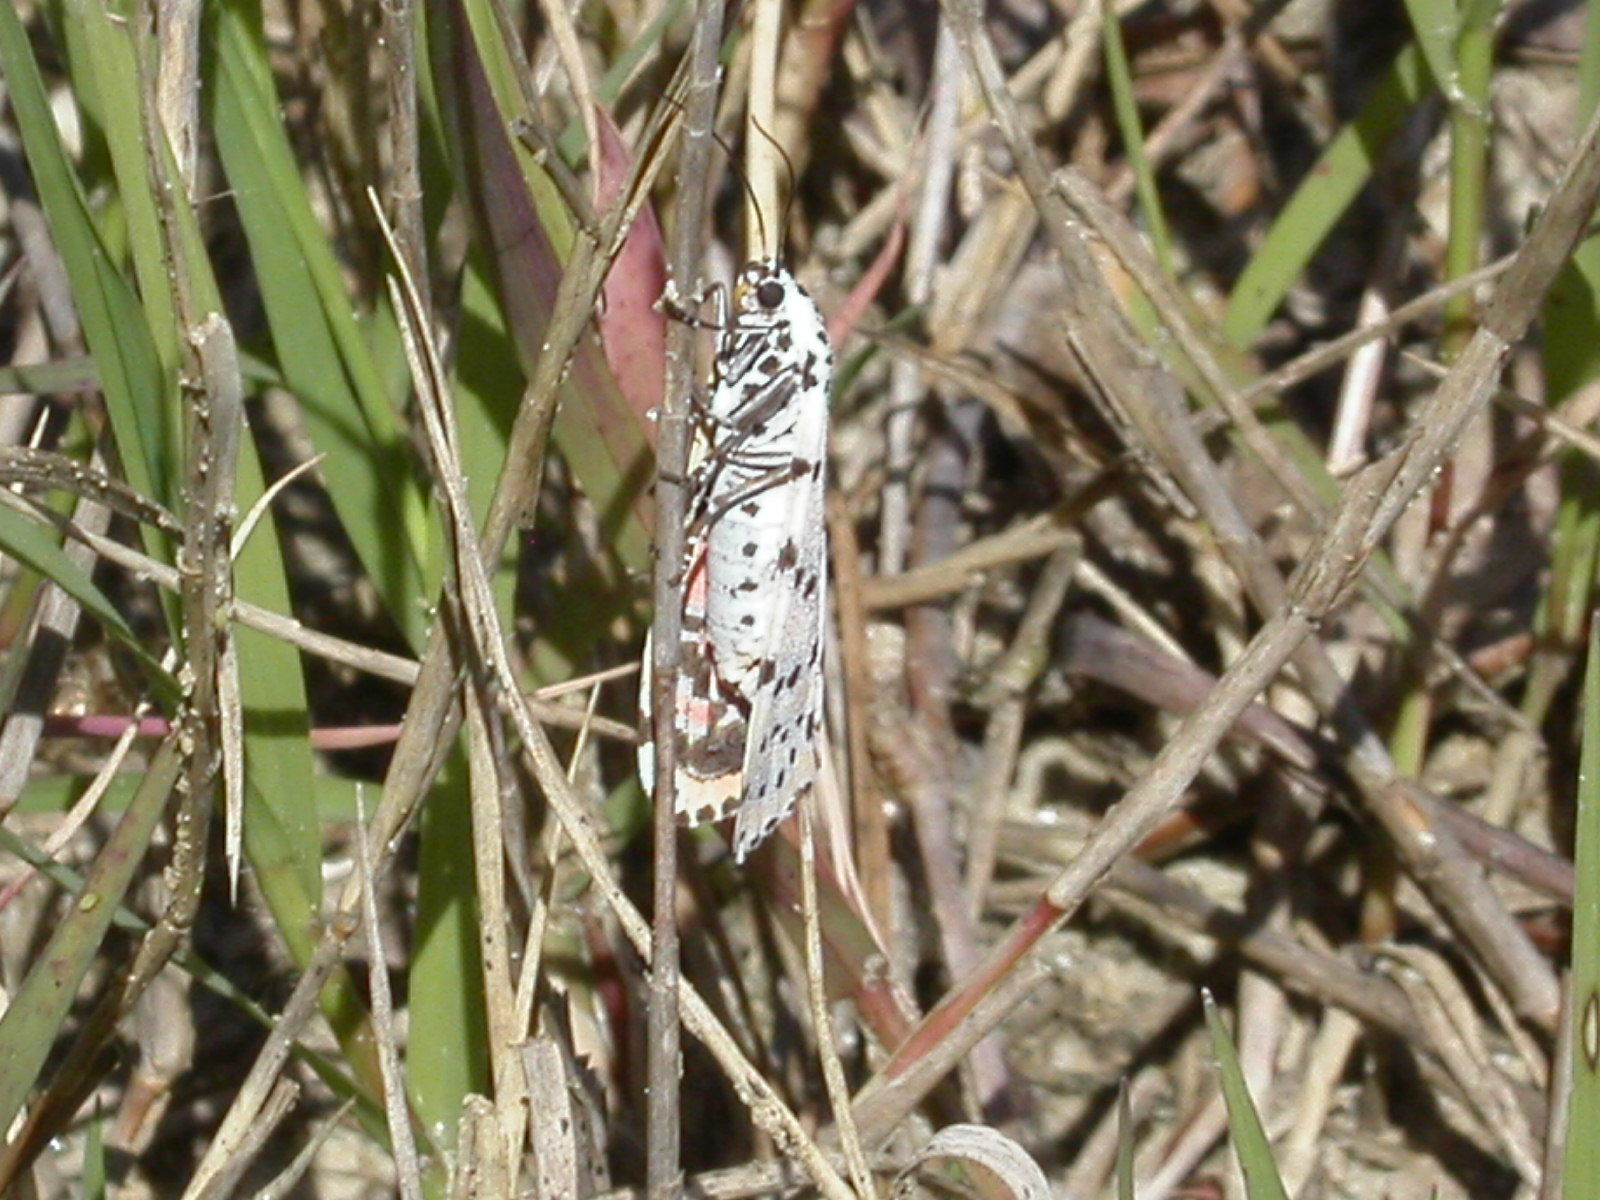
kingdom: Animalia
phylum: Arthropoda
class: Insecta
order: Lepidoptera
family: Erebidae
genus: Utetheisa
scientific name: Utetheisa ornatrix
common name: Beautiful utetheisa
